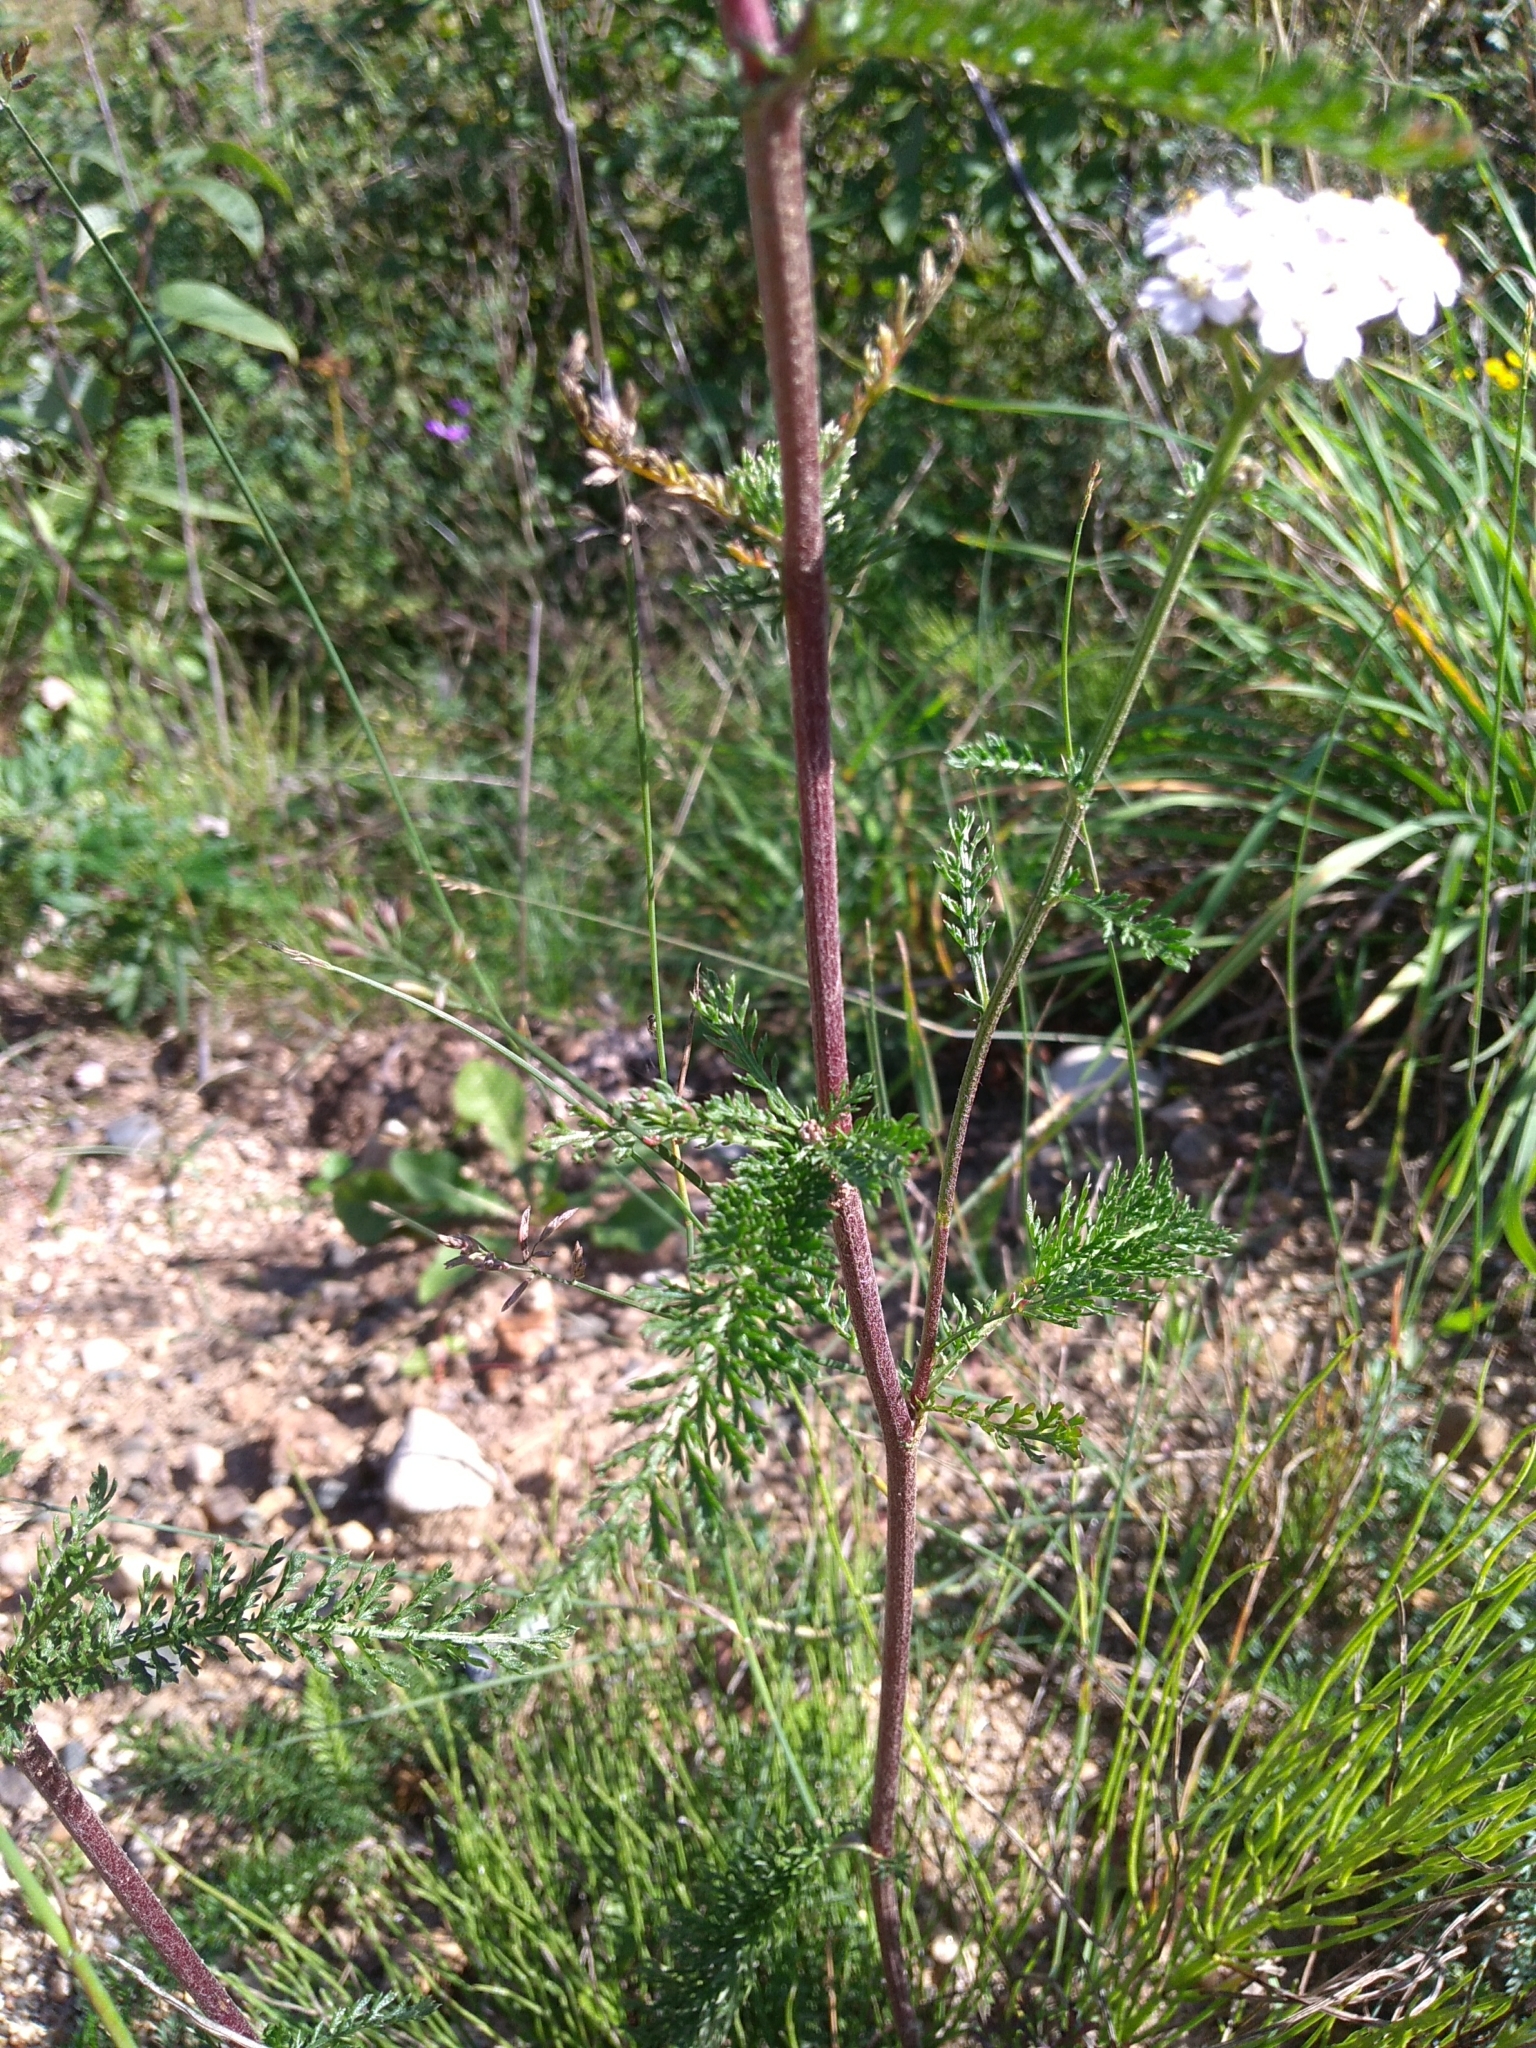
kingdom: Plantae
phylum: Tracheophyta
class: Magnoliopsida
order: Asterales
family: Asteraceae
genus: Achillea
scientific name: Achillea millefolium
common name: Yarrow
